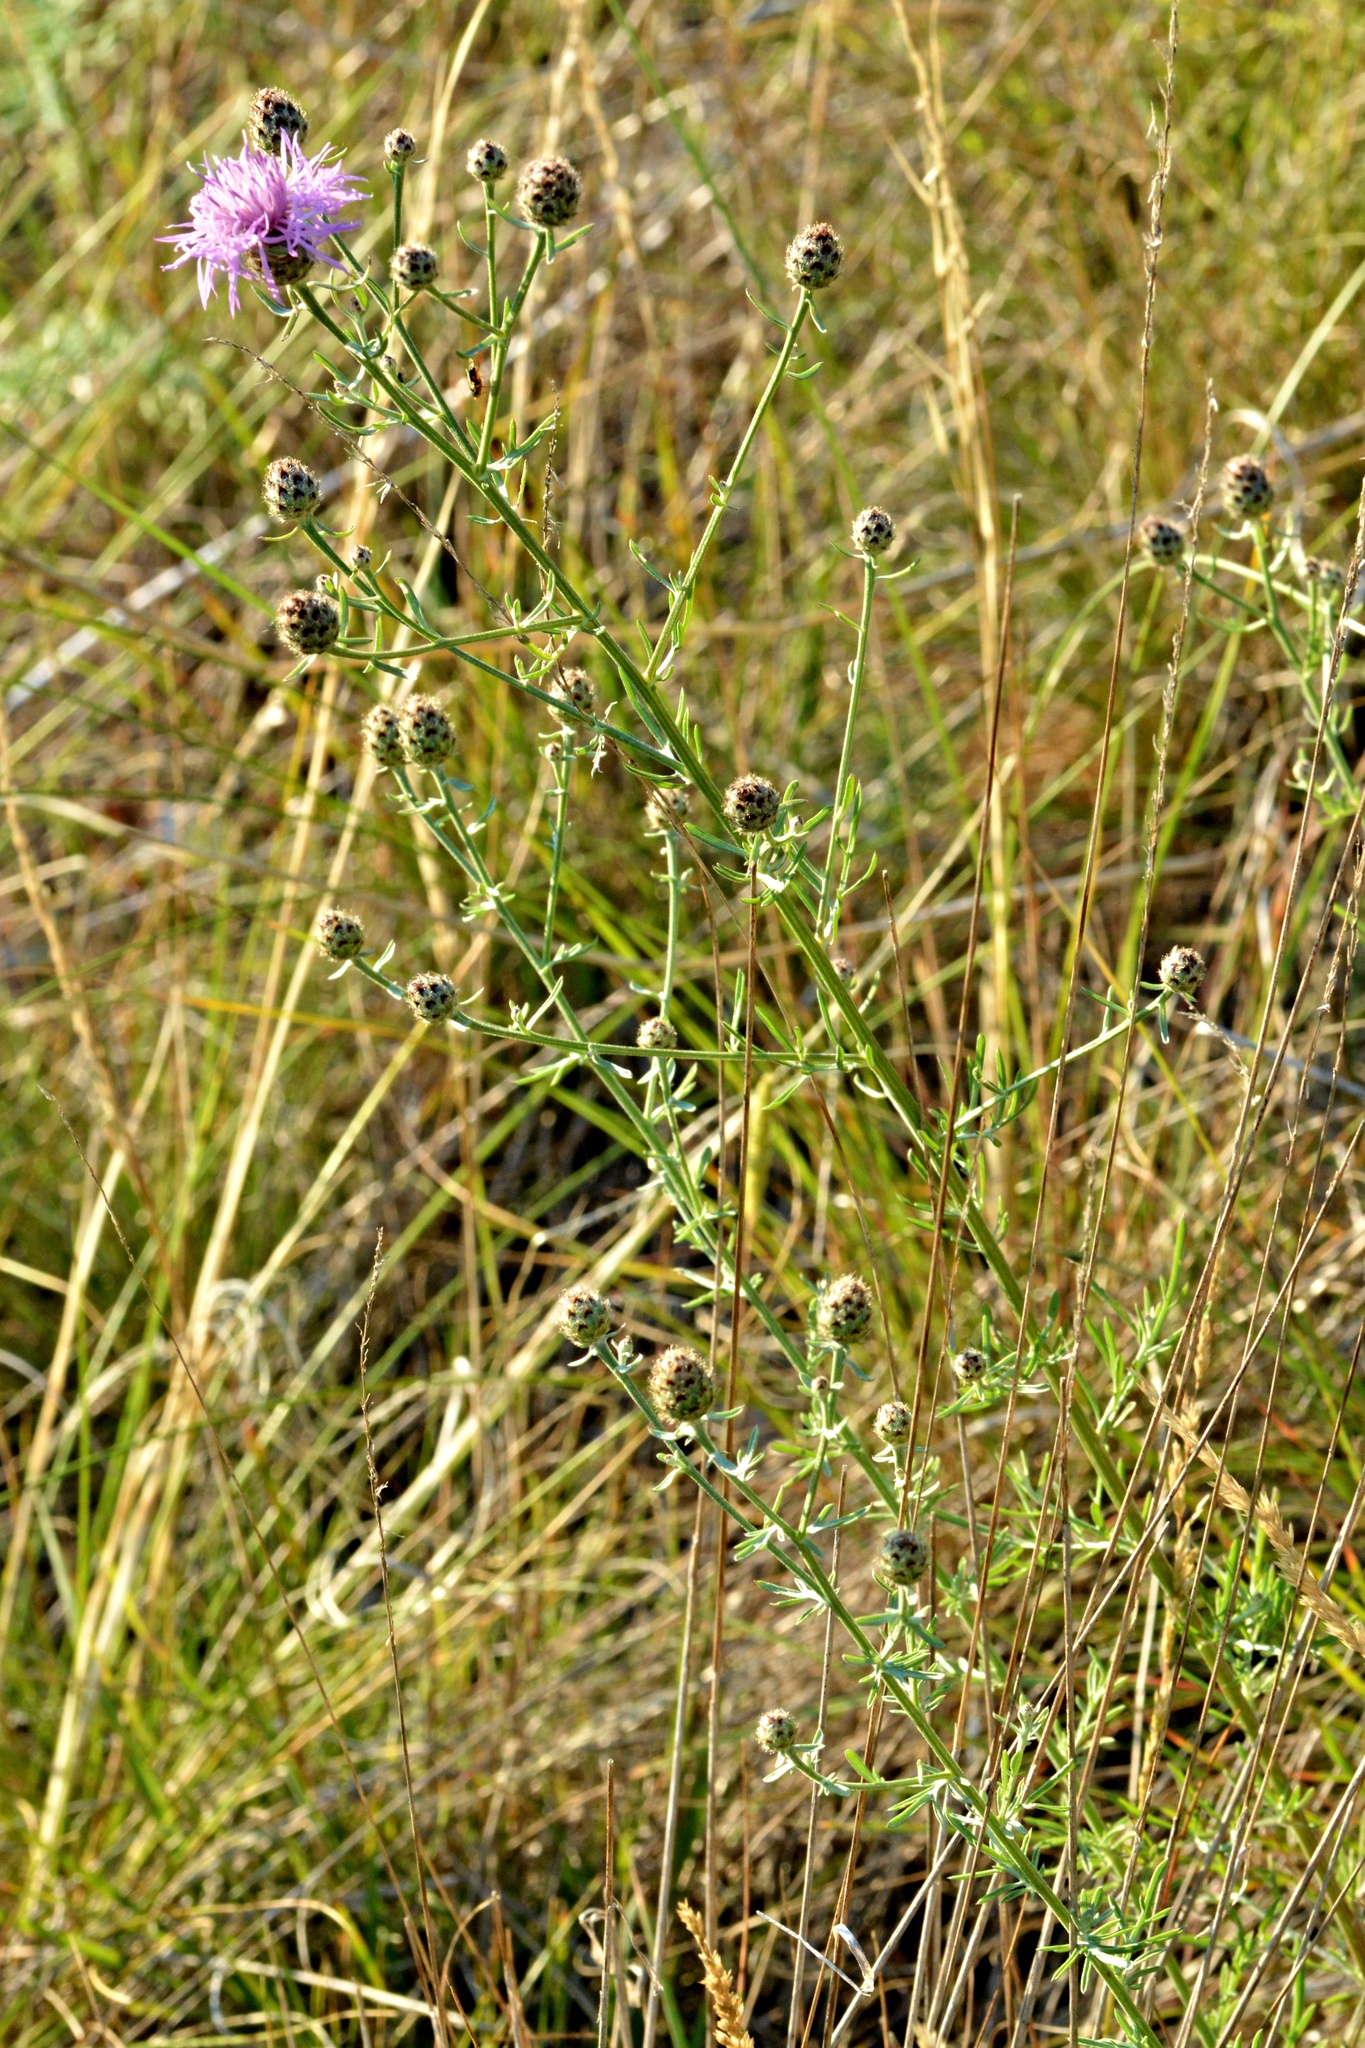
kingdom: Plantae
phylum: Tracheophyta
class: Magnoliopsida
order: Asterales
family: Asteraceae
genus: Centaurea
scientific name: Centaurea stoebe
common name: Spotted knapweed
